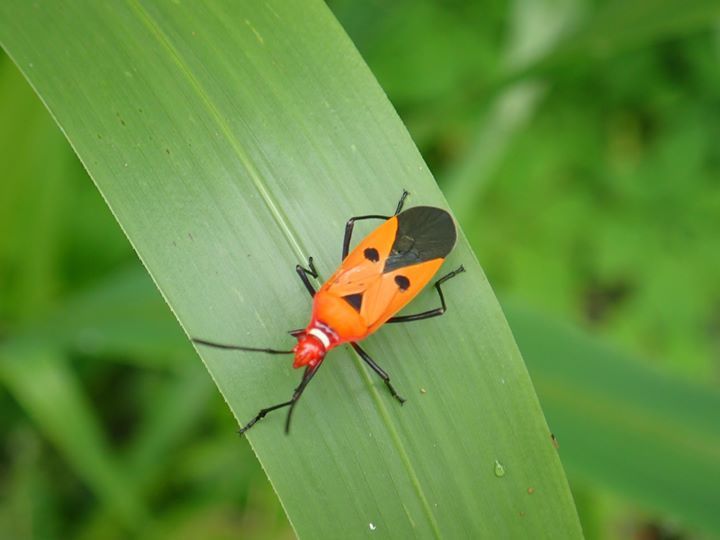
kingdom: Animalia
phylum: Arthropoda
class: Insecta
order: Hemiptera
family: Pyrrhocoridae
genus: Dysdercus
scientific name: Dysdercus cingulatus
